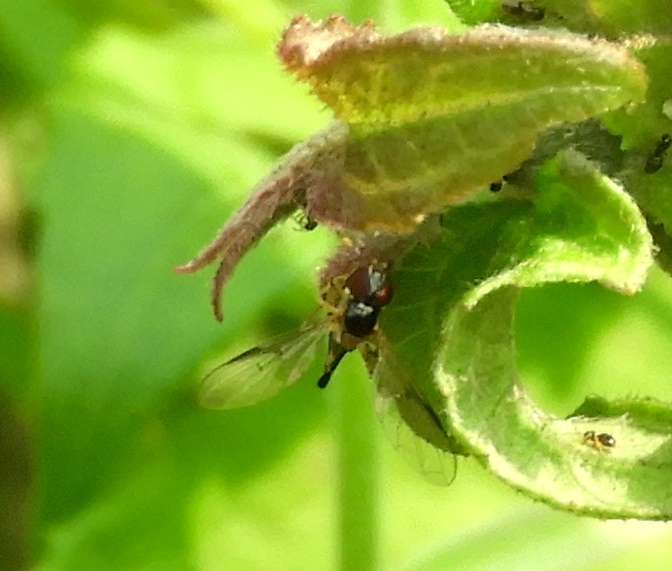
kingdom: Animalia
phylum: Arthropoda
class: Insecta
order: Diptera
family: Syrphidae
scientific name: Syrphidae
